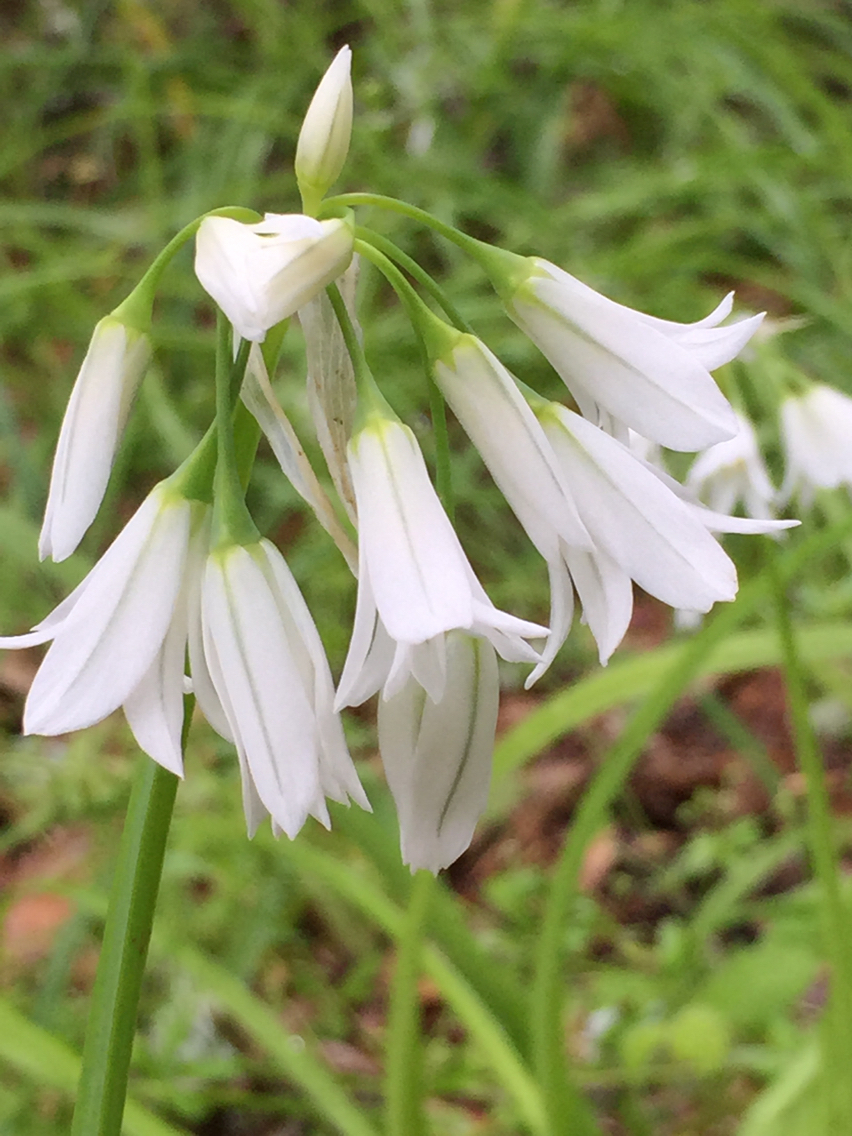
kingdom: Plantae
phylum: Tracheophyta
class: Liliopsida
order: Asparagales
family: Amaryllidaceae
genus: Allium
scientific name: Allium triquetrum
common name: Three-cornered garlic
